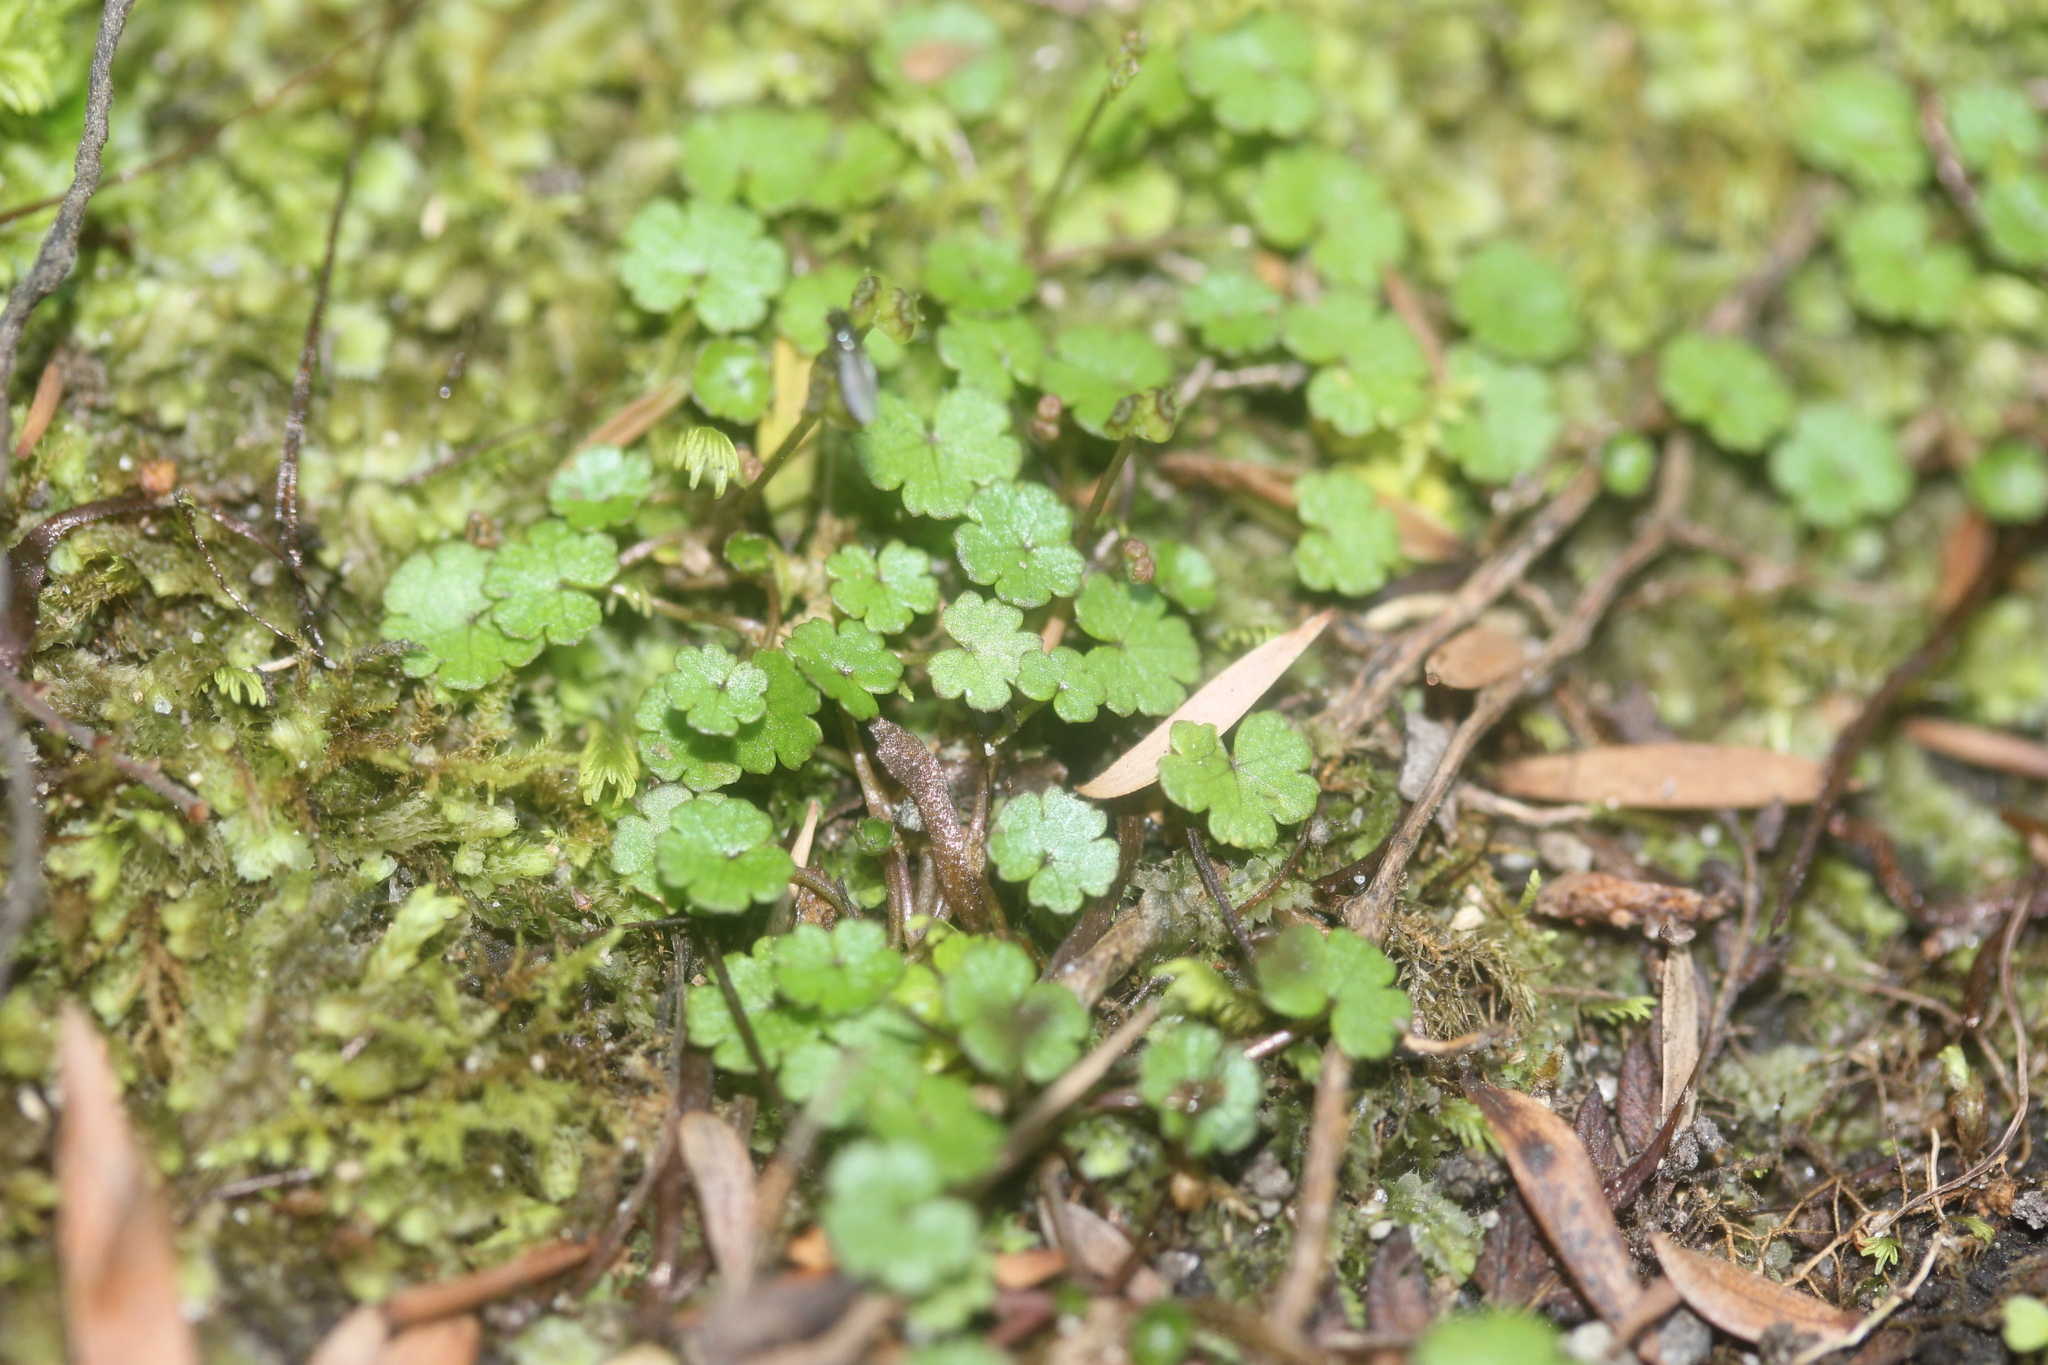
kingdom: Plantae
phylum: Tracheophyta
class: Magnoliopsida
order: Apiales
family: Araliaceae
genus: Hydrocotyle
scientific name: Hydrocotyle microphylla
